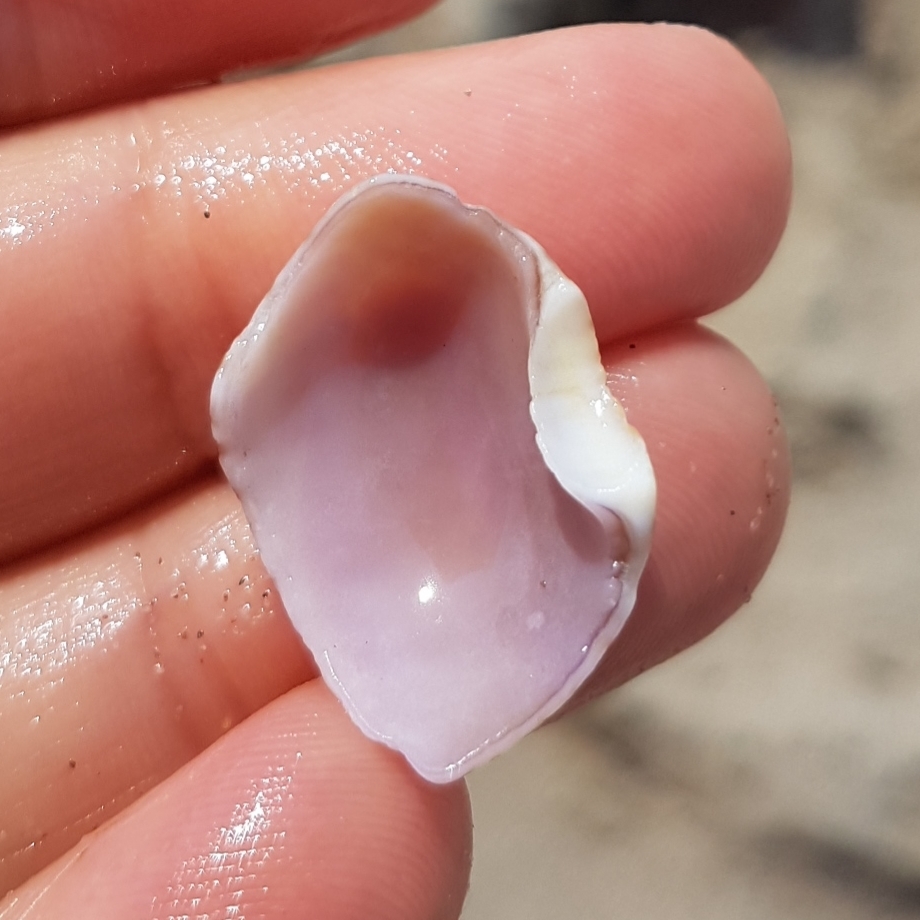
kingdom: Animalia
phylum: Mollusca
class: Gastropoda
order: Littorinimorpha
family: Naticidae
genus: Naticarius
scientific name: Naticarius stercusmuscarum
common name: Fly-speck moonsnail
